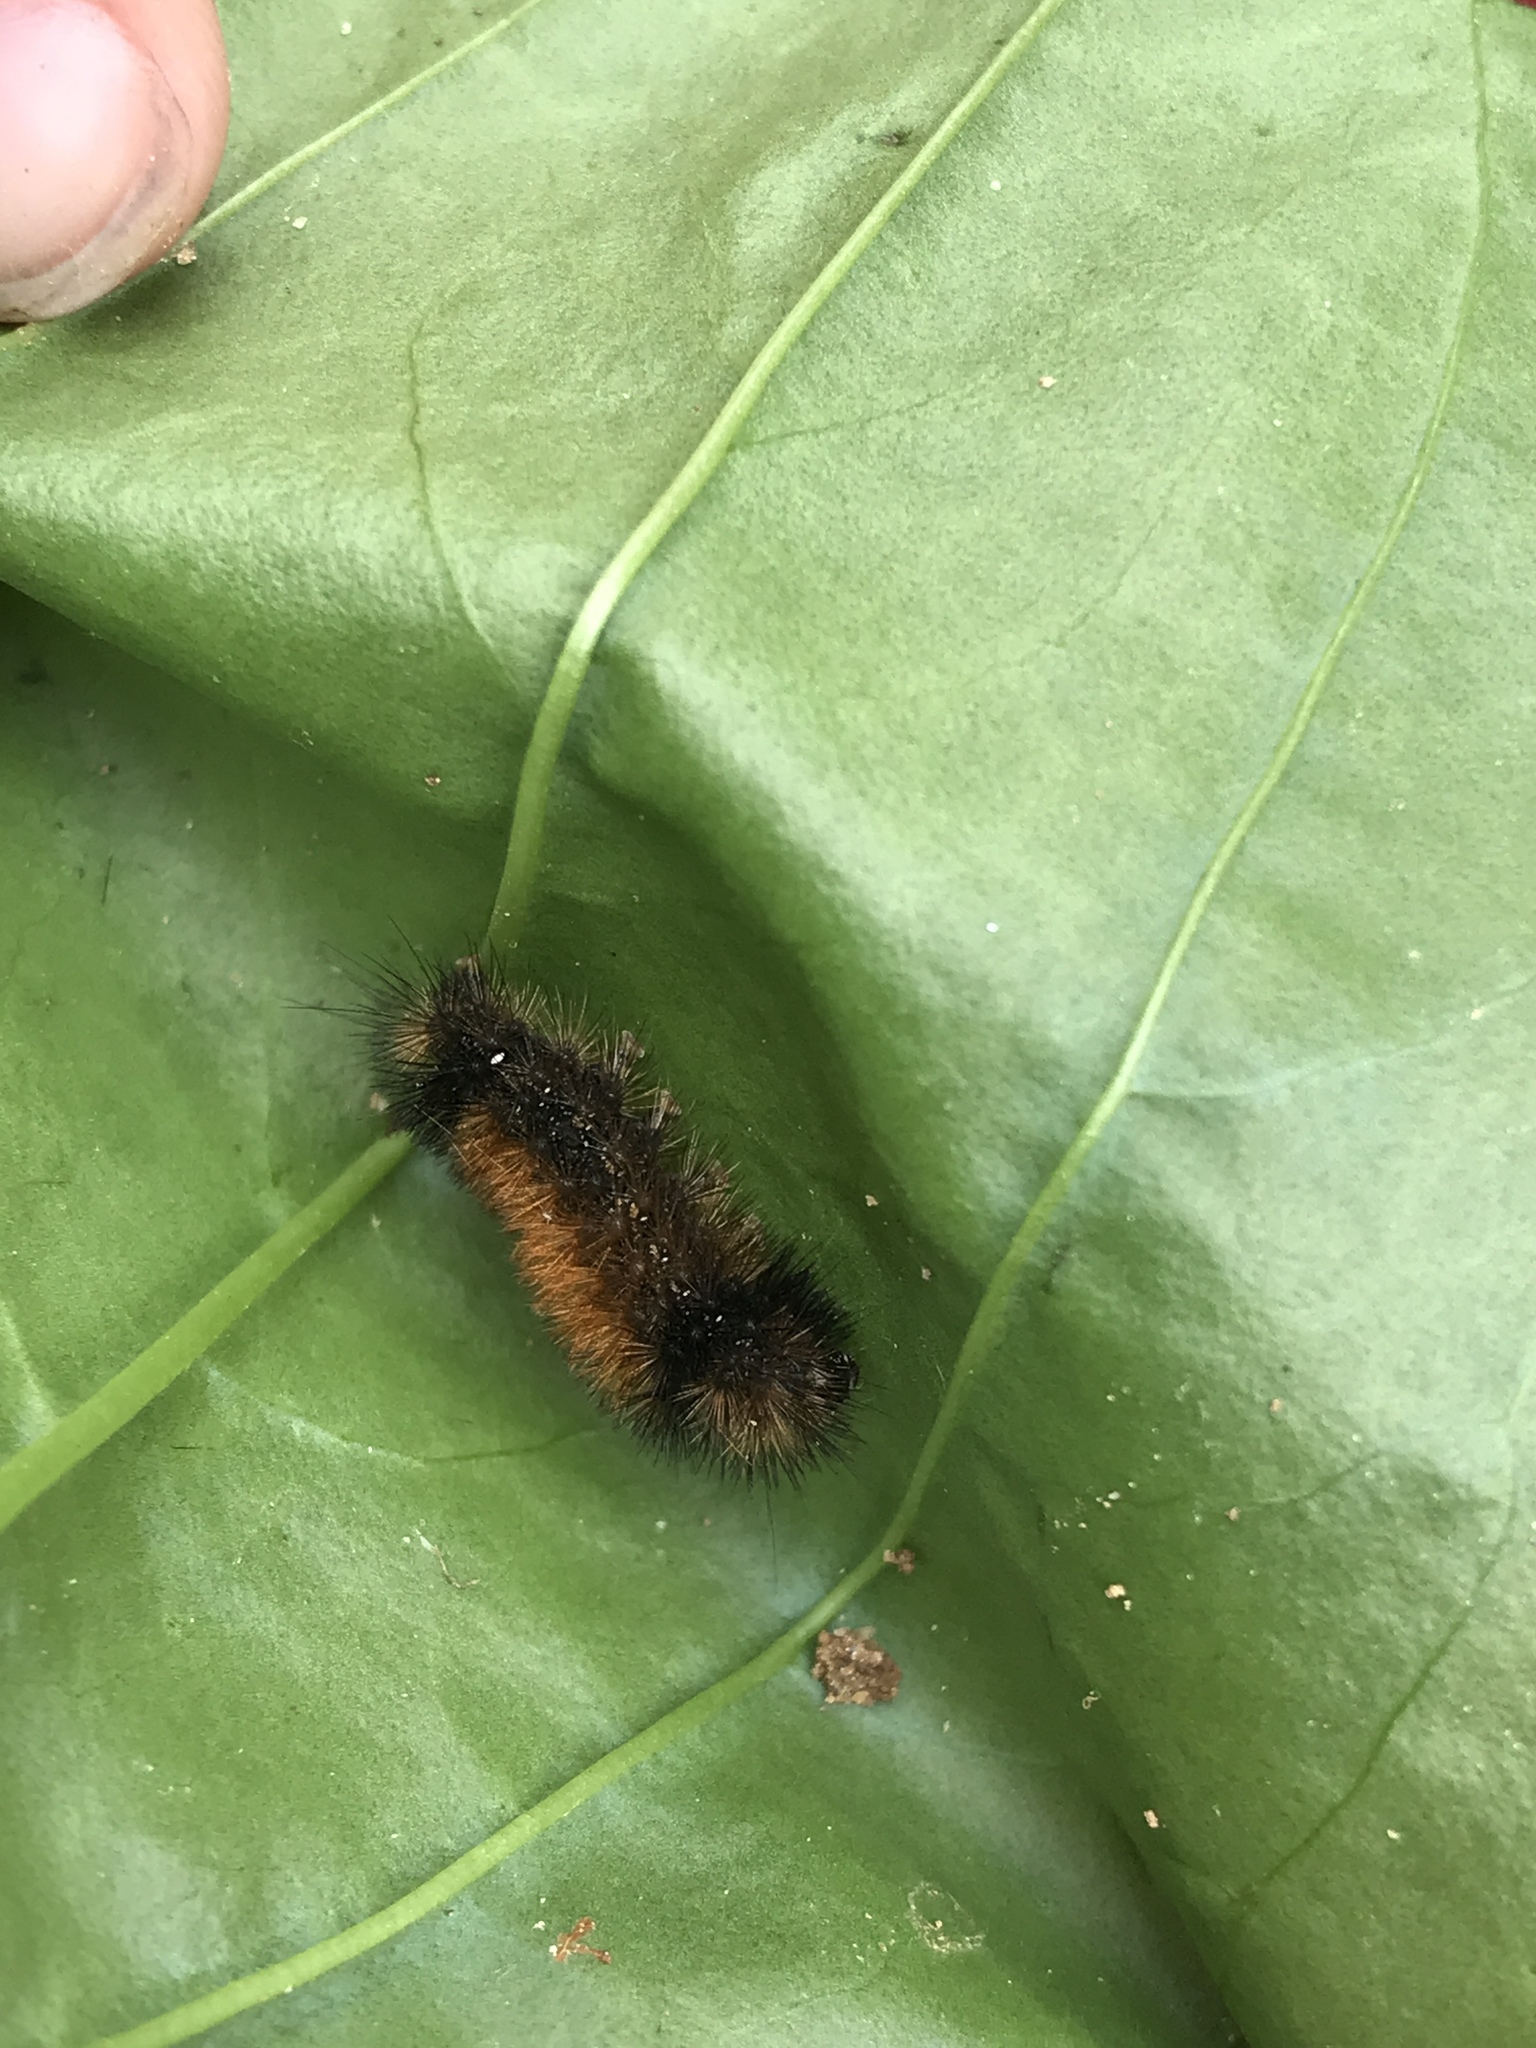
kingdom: Animalia
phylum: Arthropoda
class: Insecta
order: Lepidoptera
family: Erebidae
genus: Pyrrharctia
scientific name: Pyrrharctia isabella
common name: Isabella tiger moth
